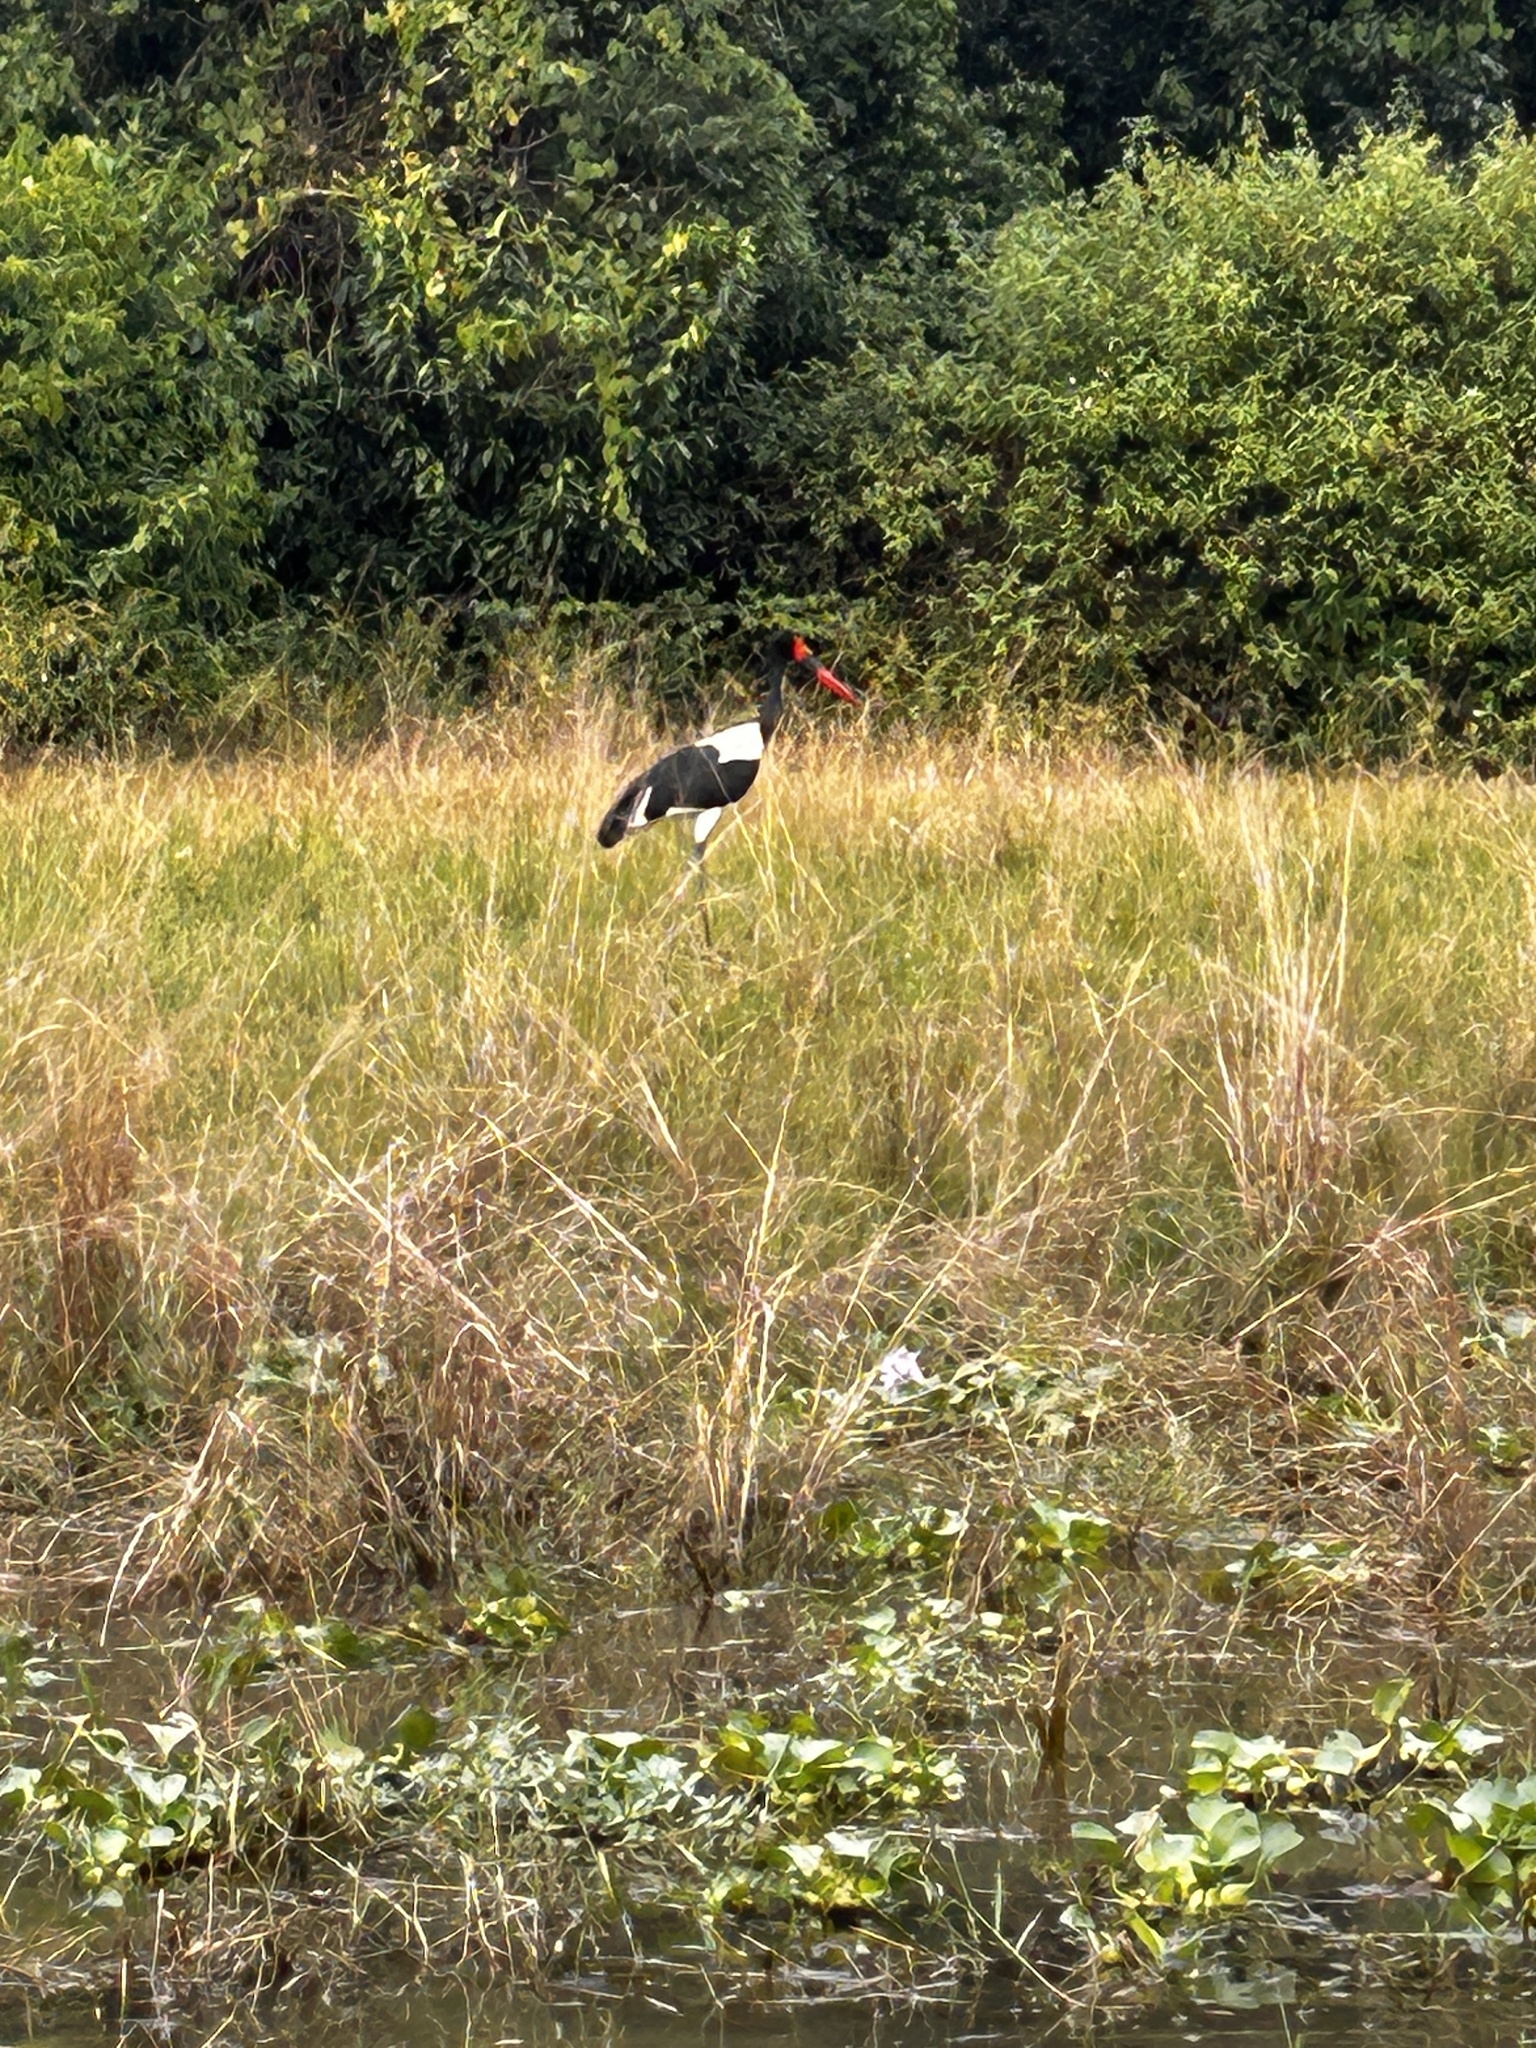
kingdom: Animalia
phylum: Chordata
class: Aves
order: Ciconiiformes
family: Ciconiidae
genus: Ephippiorhynchus
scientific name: Ephippiorhynchus senegalensis
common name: Saddle-billed stork
